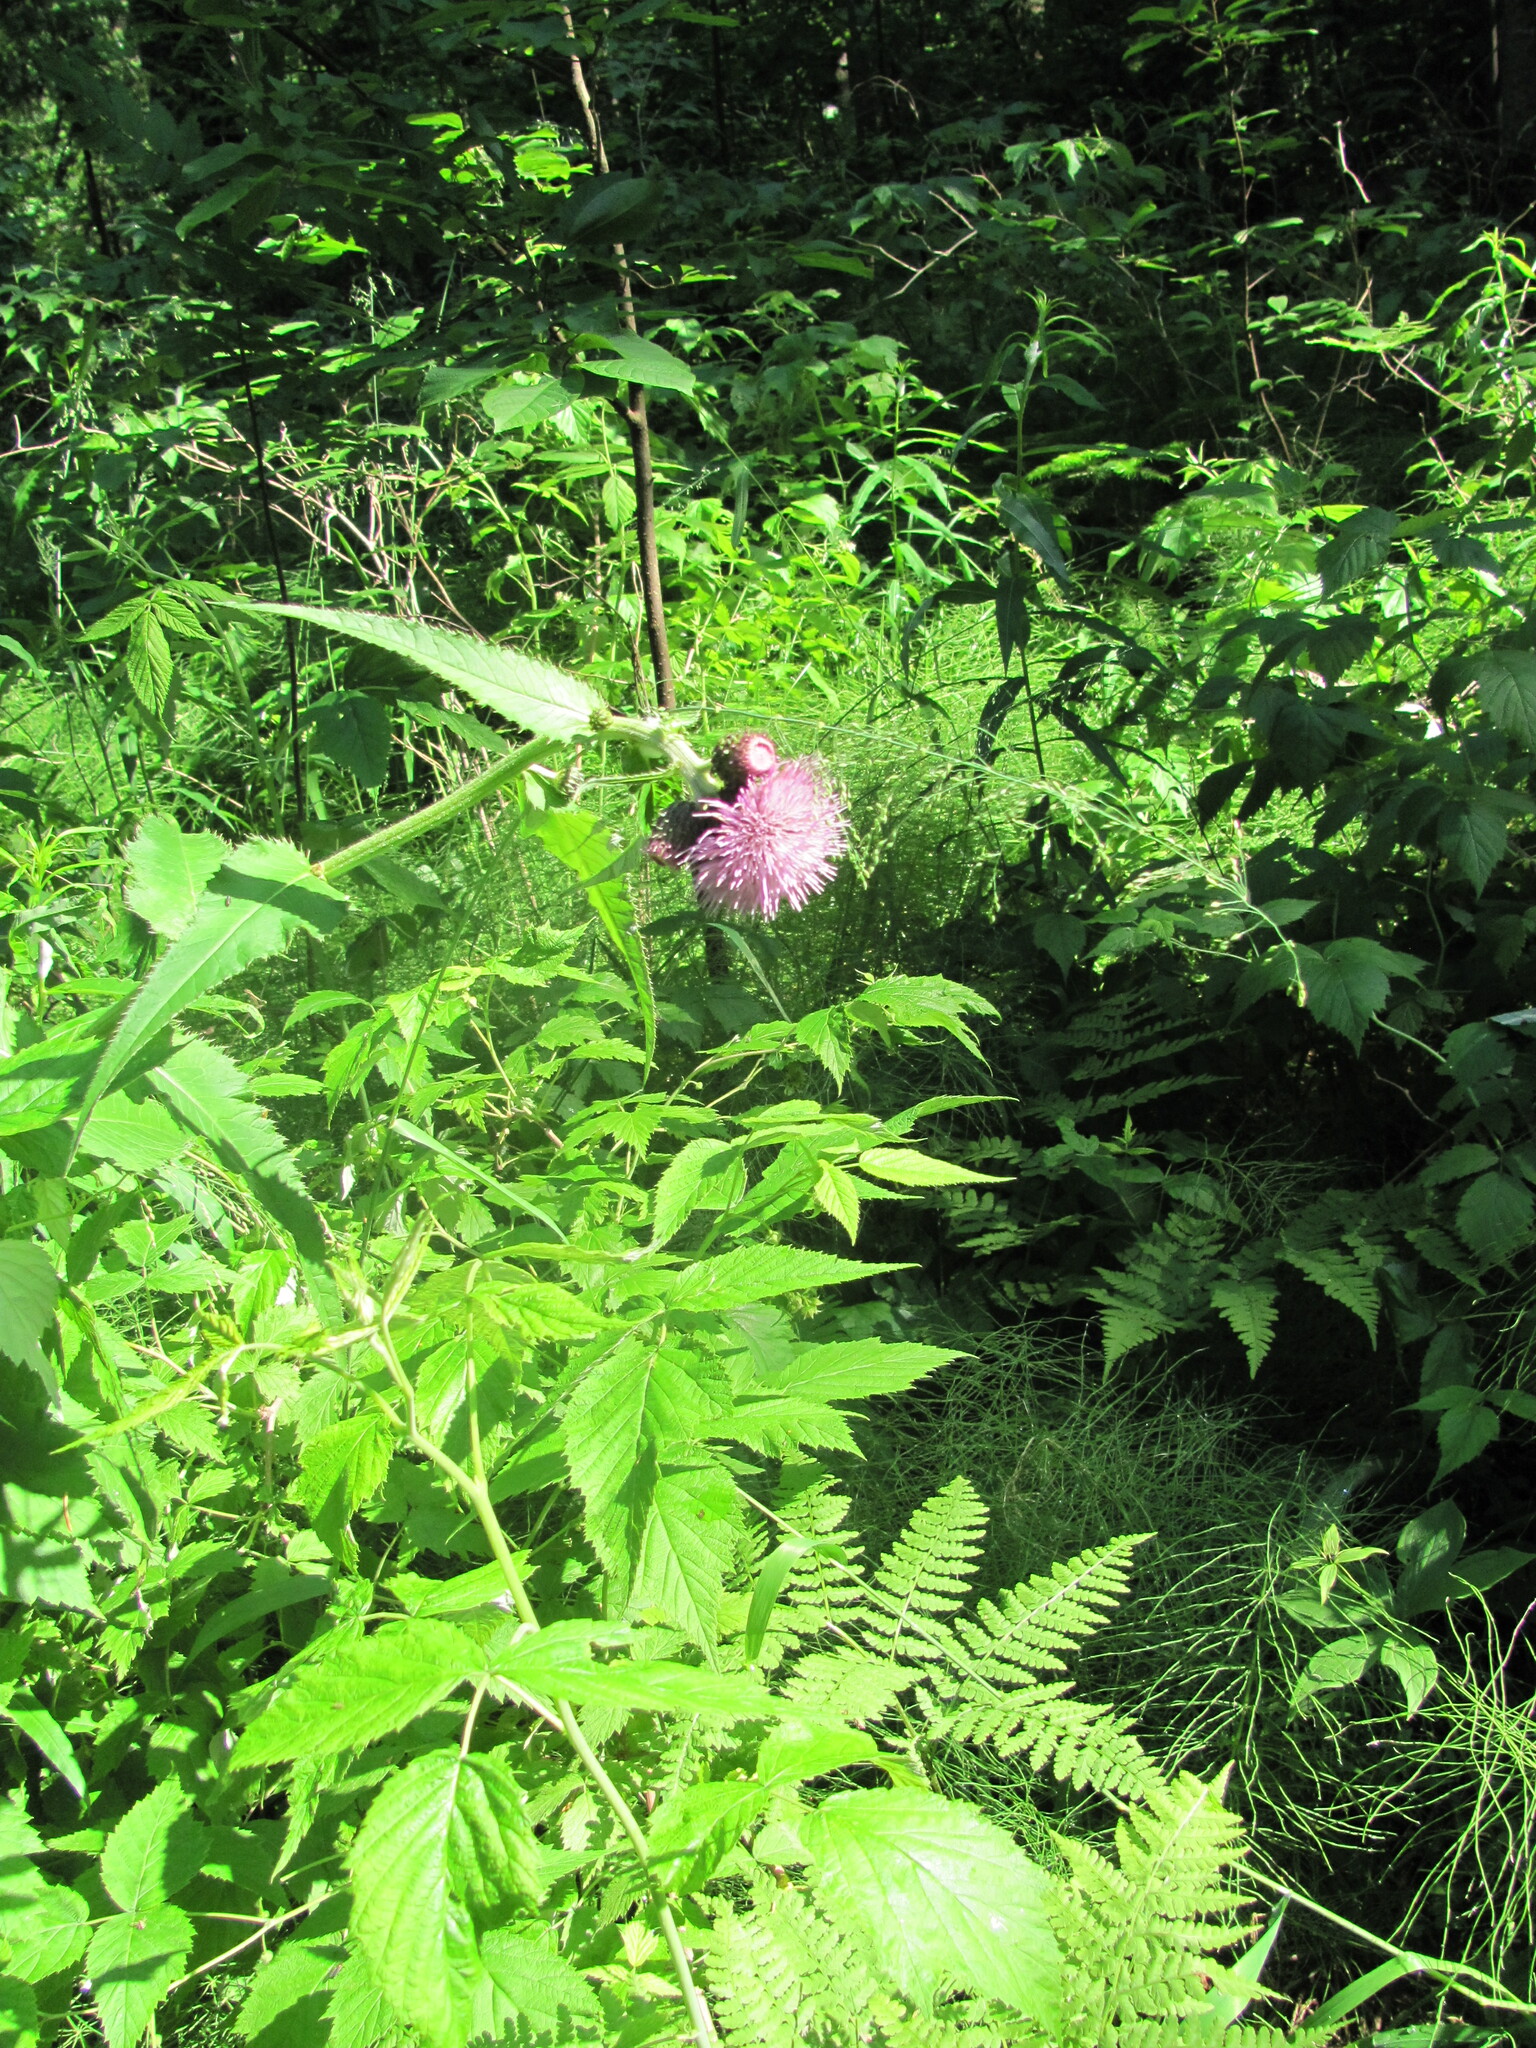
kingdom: Plantae
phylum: Tracheophyta
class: Magnoliopsida
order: Asterales
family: Asteraceae
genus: Cirsium
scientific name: Cirsium helenioides
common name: Melancholy thistle
